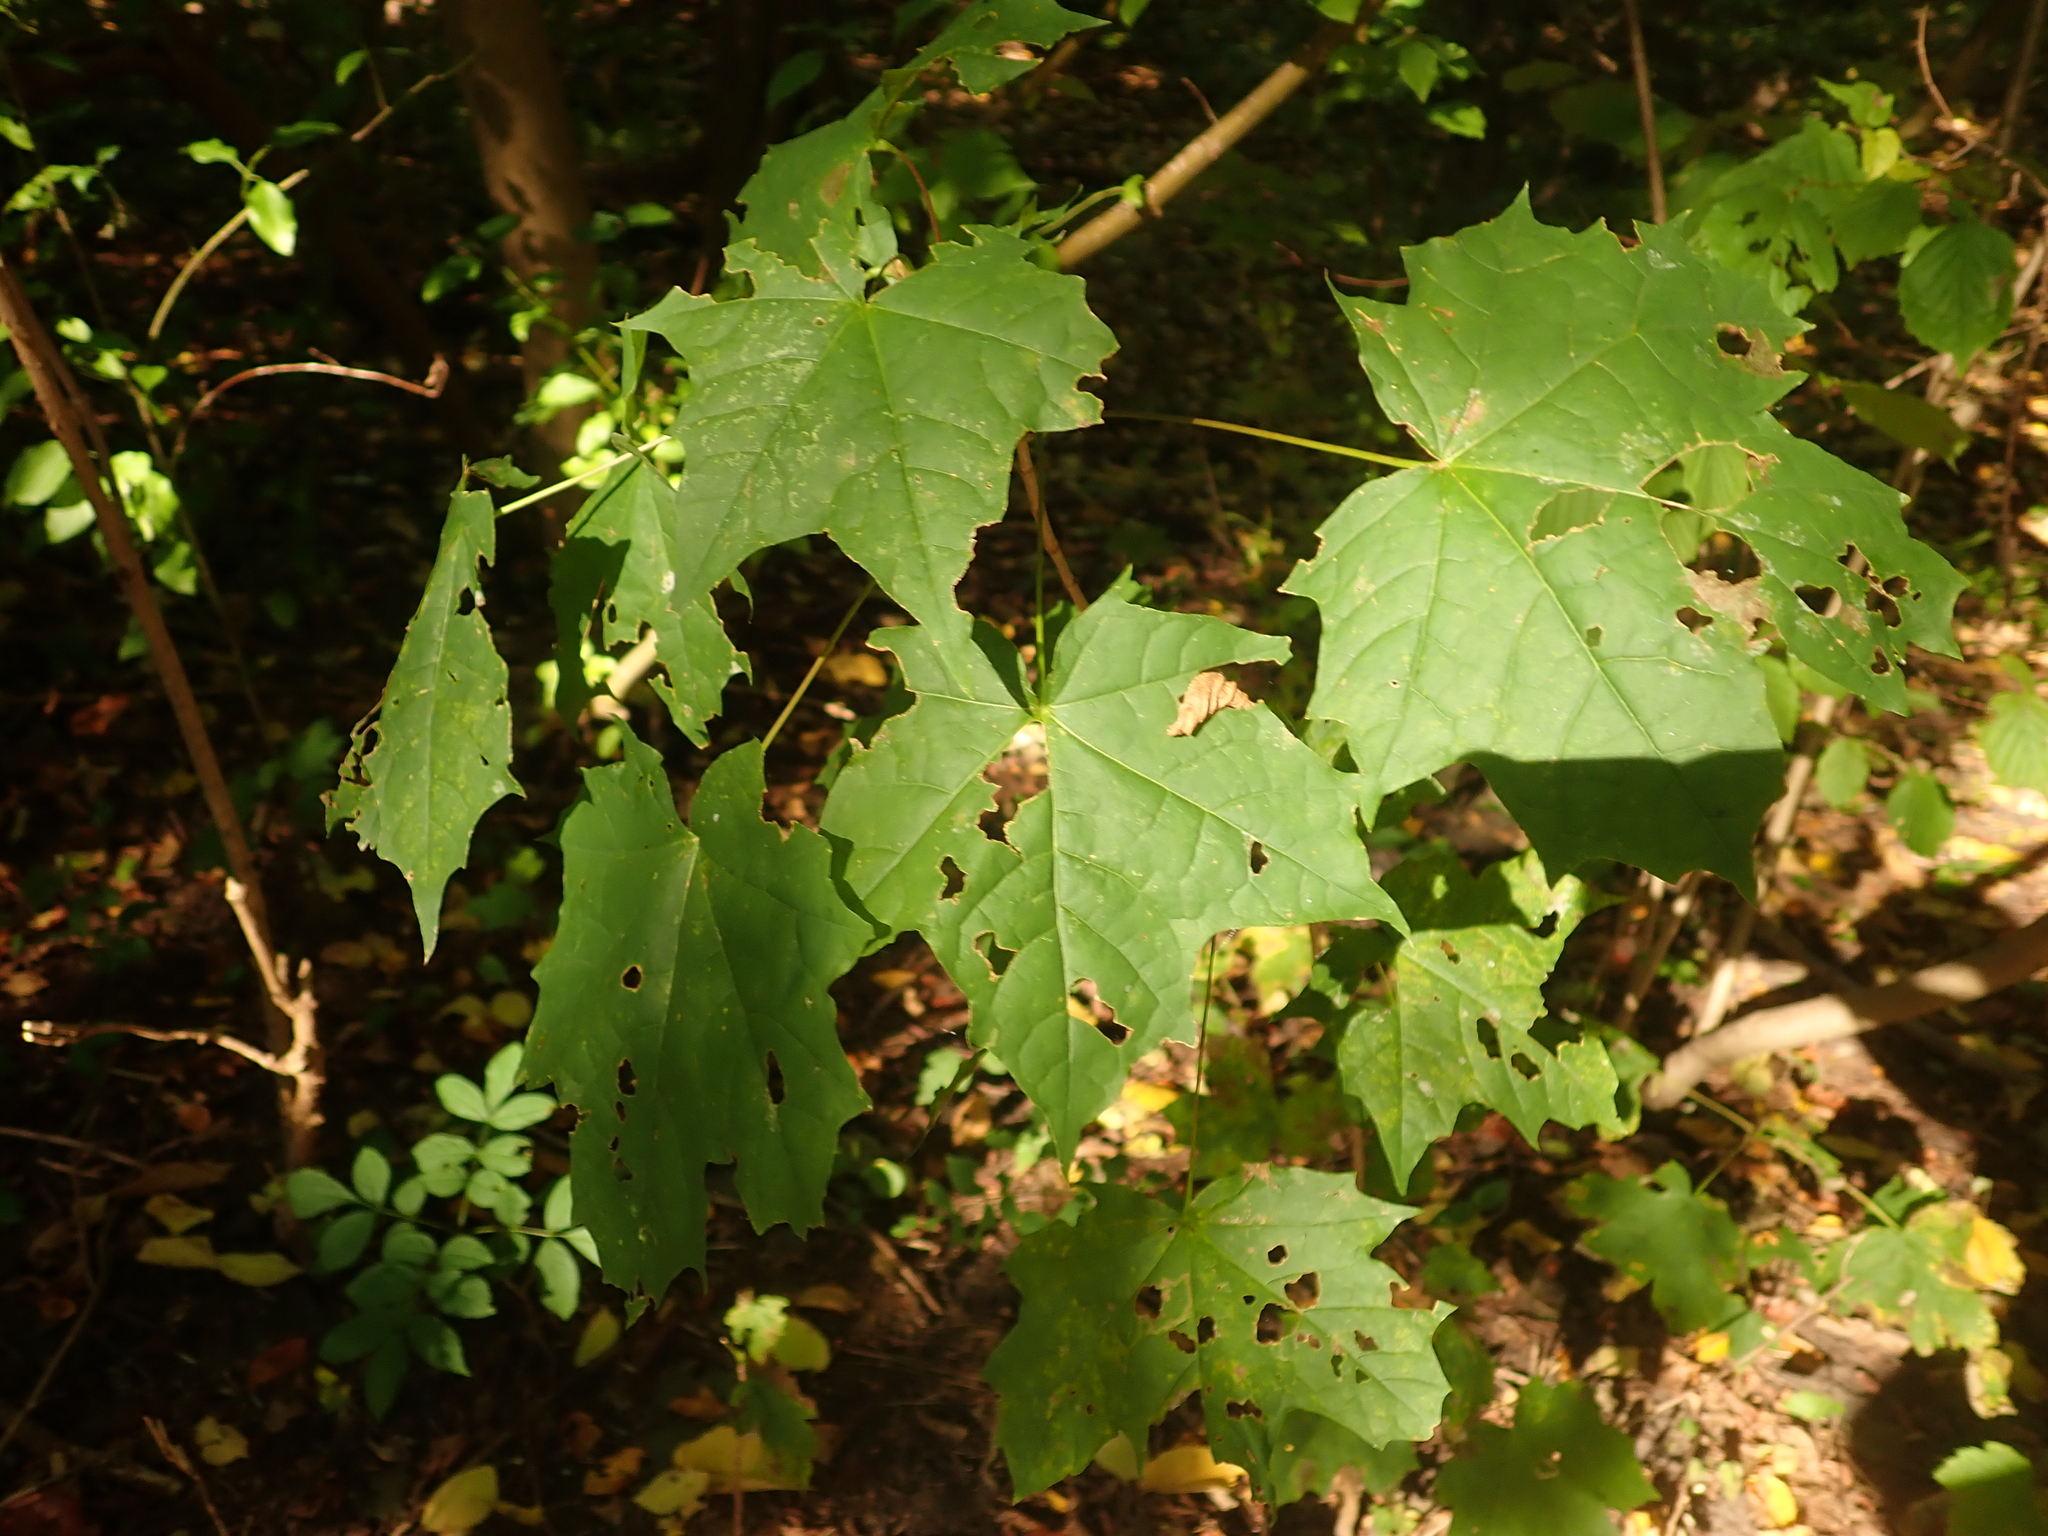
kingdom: Plantae
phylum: Tracheophyta
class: Magnoliopsida
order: Sapindales
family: Sapindaceae
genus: Acer
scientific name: Acer platanoides
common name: Norway maple
